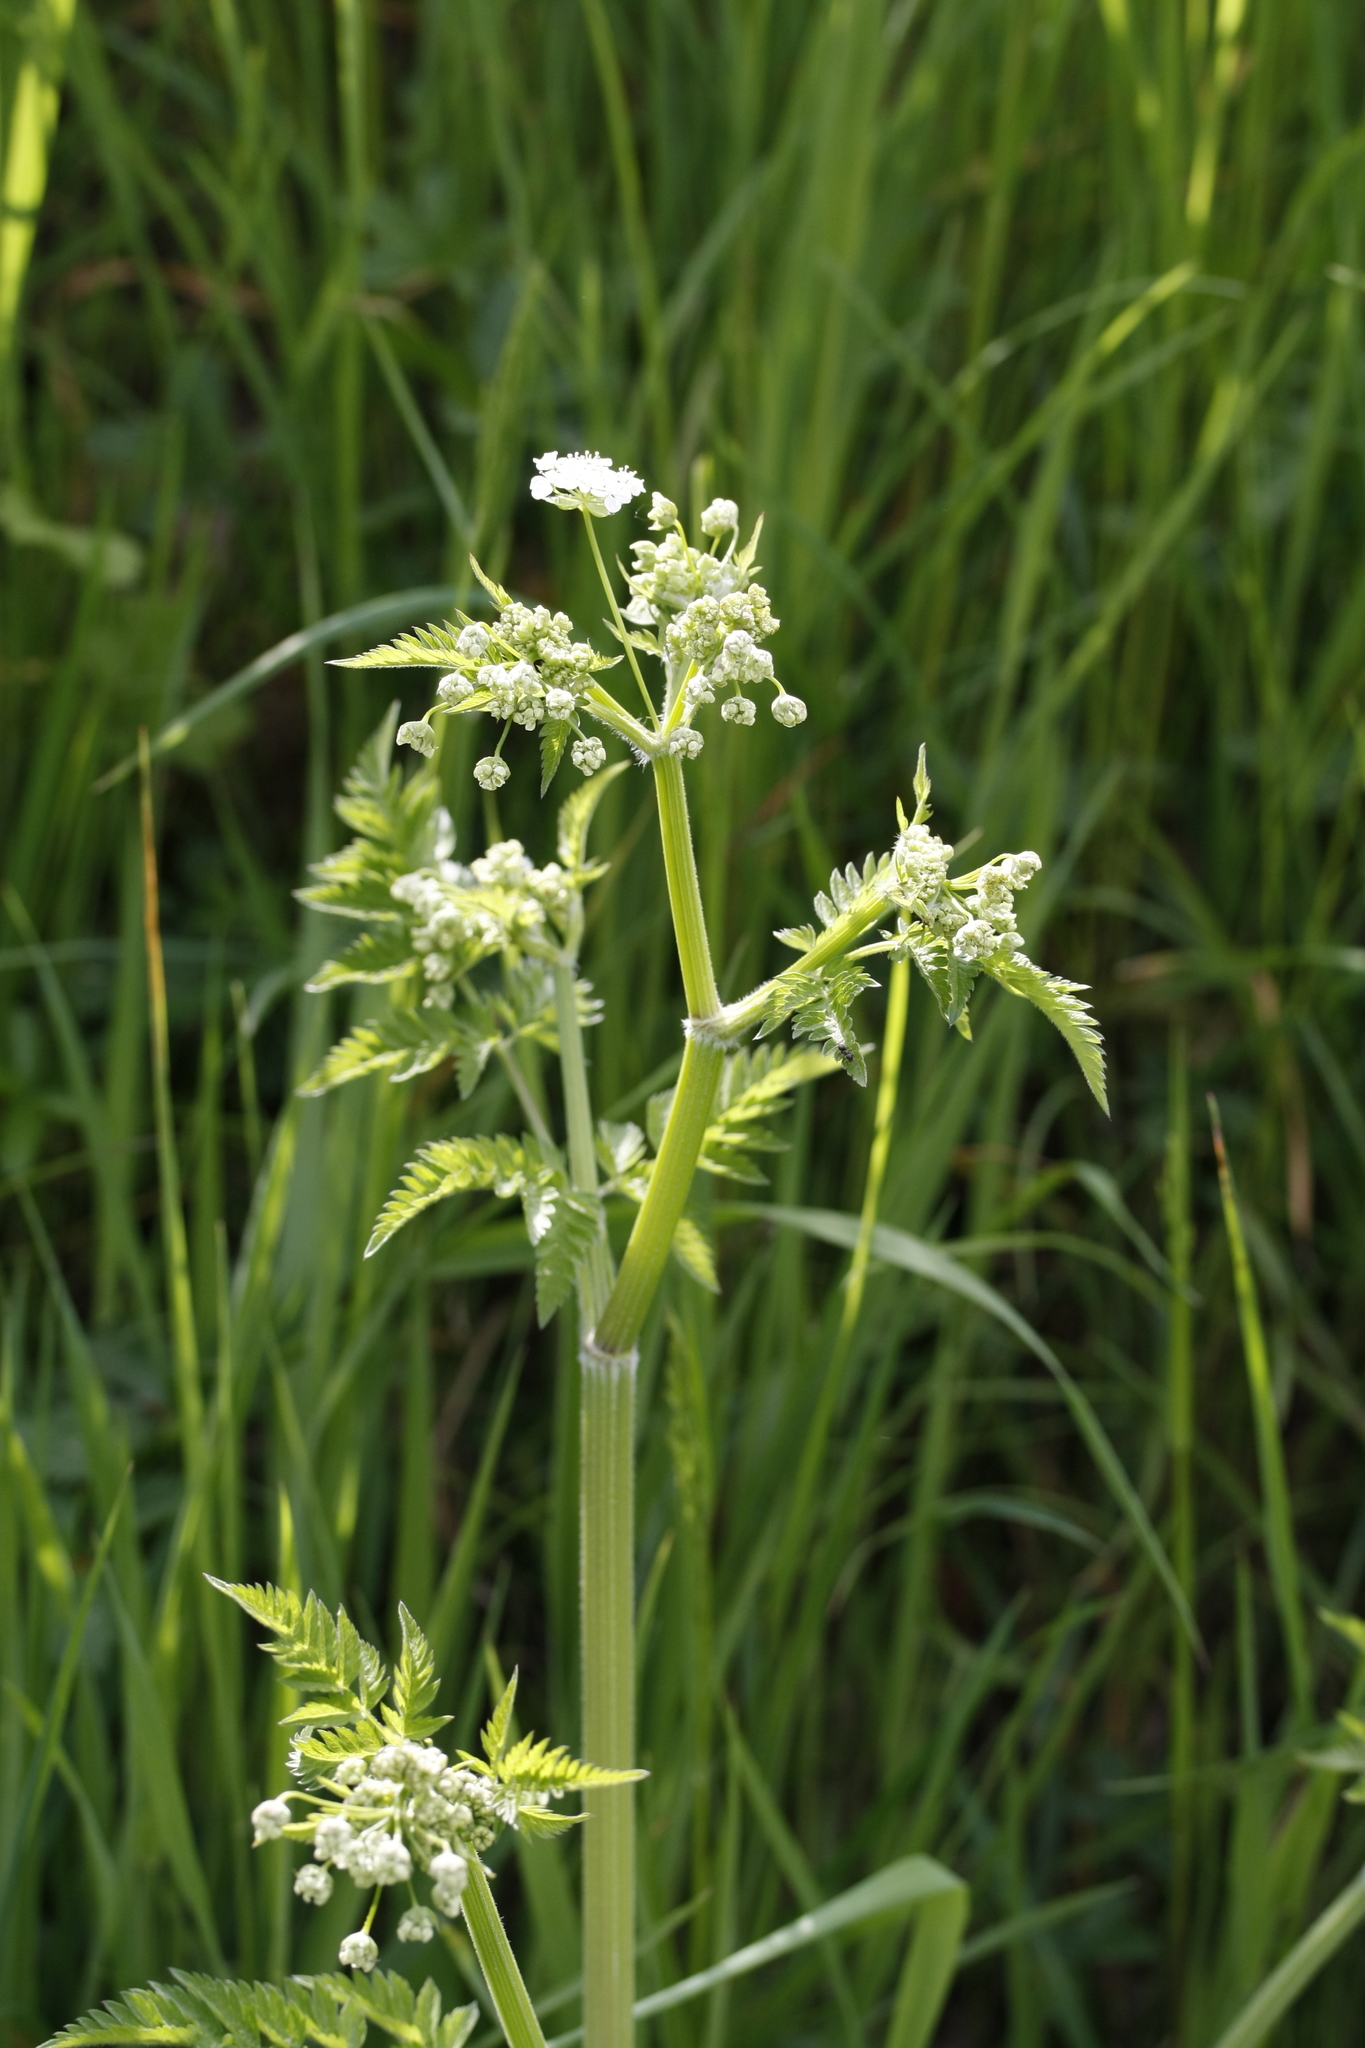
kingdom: Plantae
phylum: Tracheophyta
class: Magnoliopsida
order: Apiales
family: Apiaceae
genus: Anthriscus
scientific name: Anthriscus sylvestris
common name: Cow parsley
